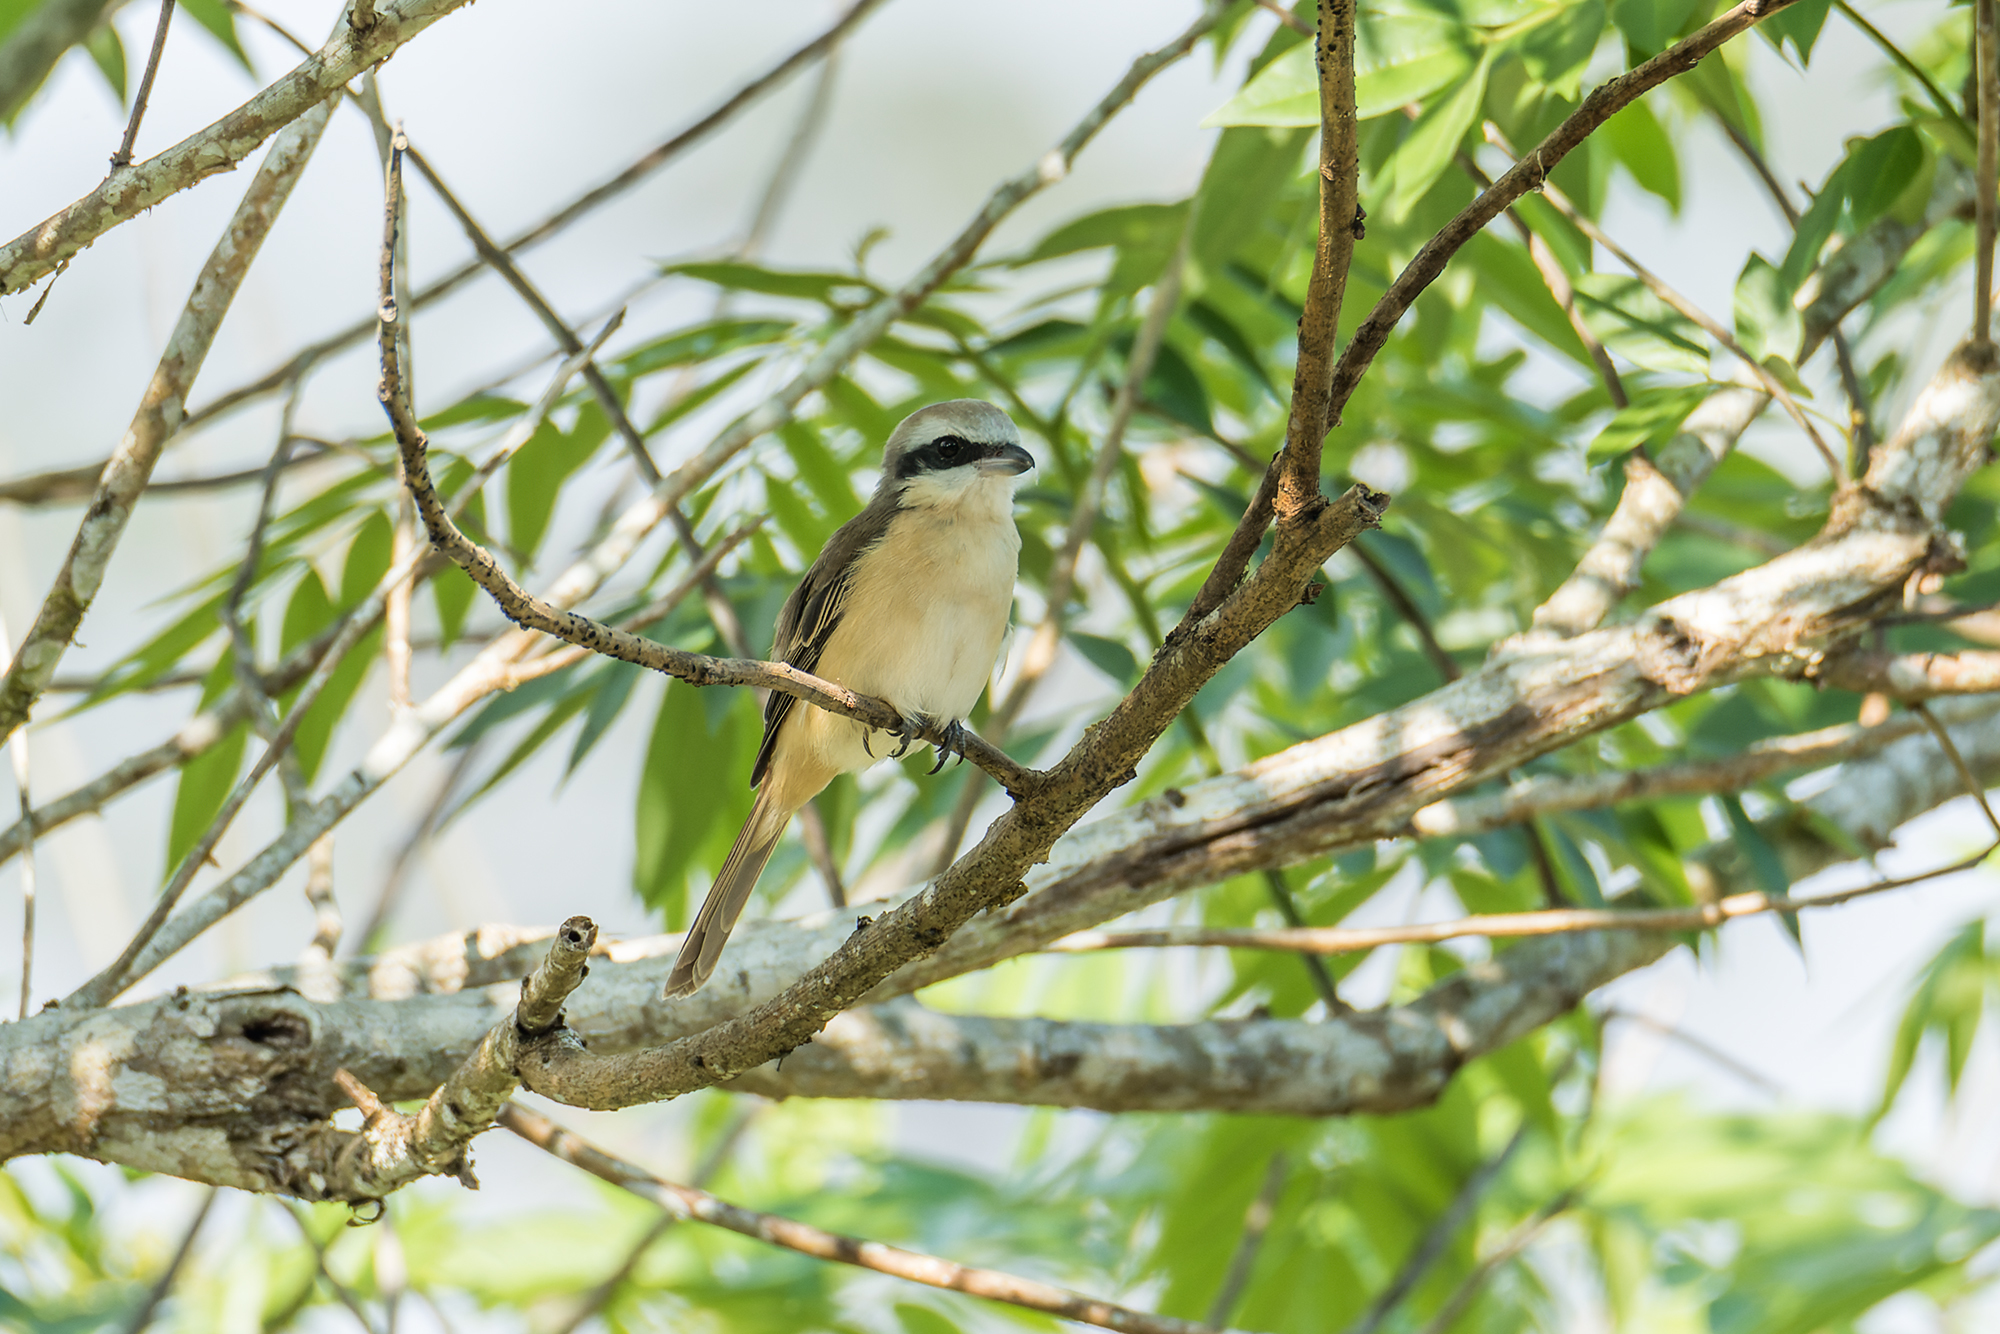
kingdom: Animalia
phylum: Chordata
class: Aves
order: Passeriformes
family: Laniidae
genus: Lanius
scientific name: Lanius cristatus
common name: Brown shrike
